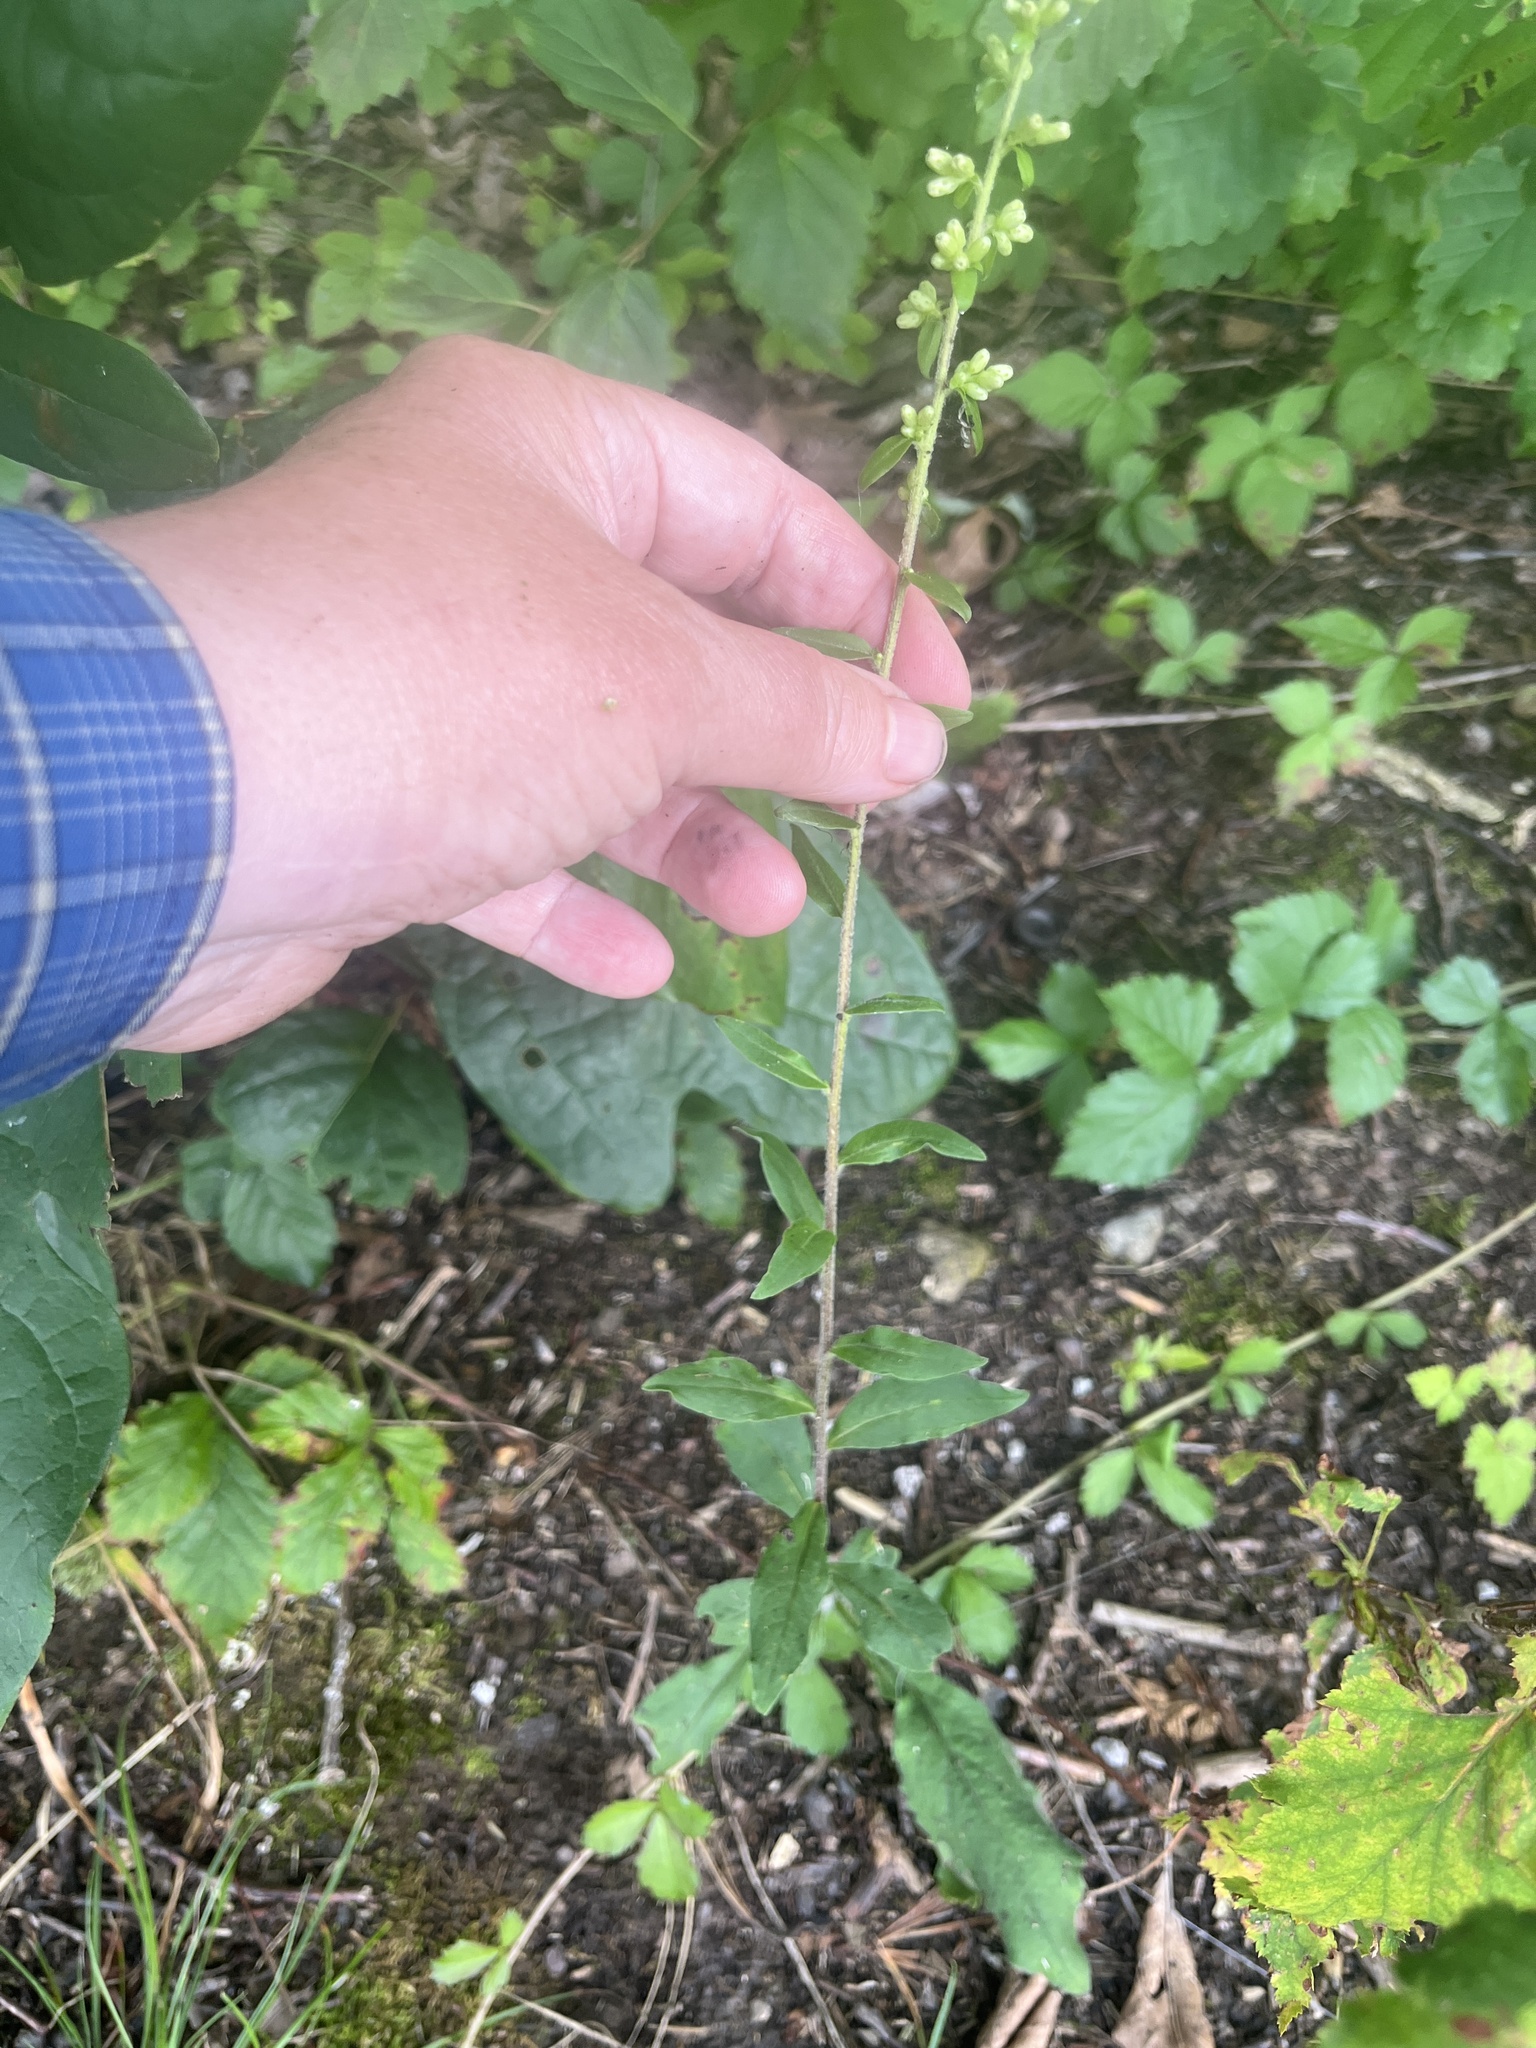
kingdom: Plantae
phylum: Tracheophyta
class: Magnoliopsida
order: Asterales
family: Asteraceae
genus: Solidago
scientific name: Solidago bicolor
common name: Silverrod
